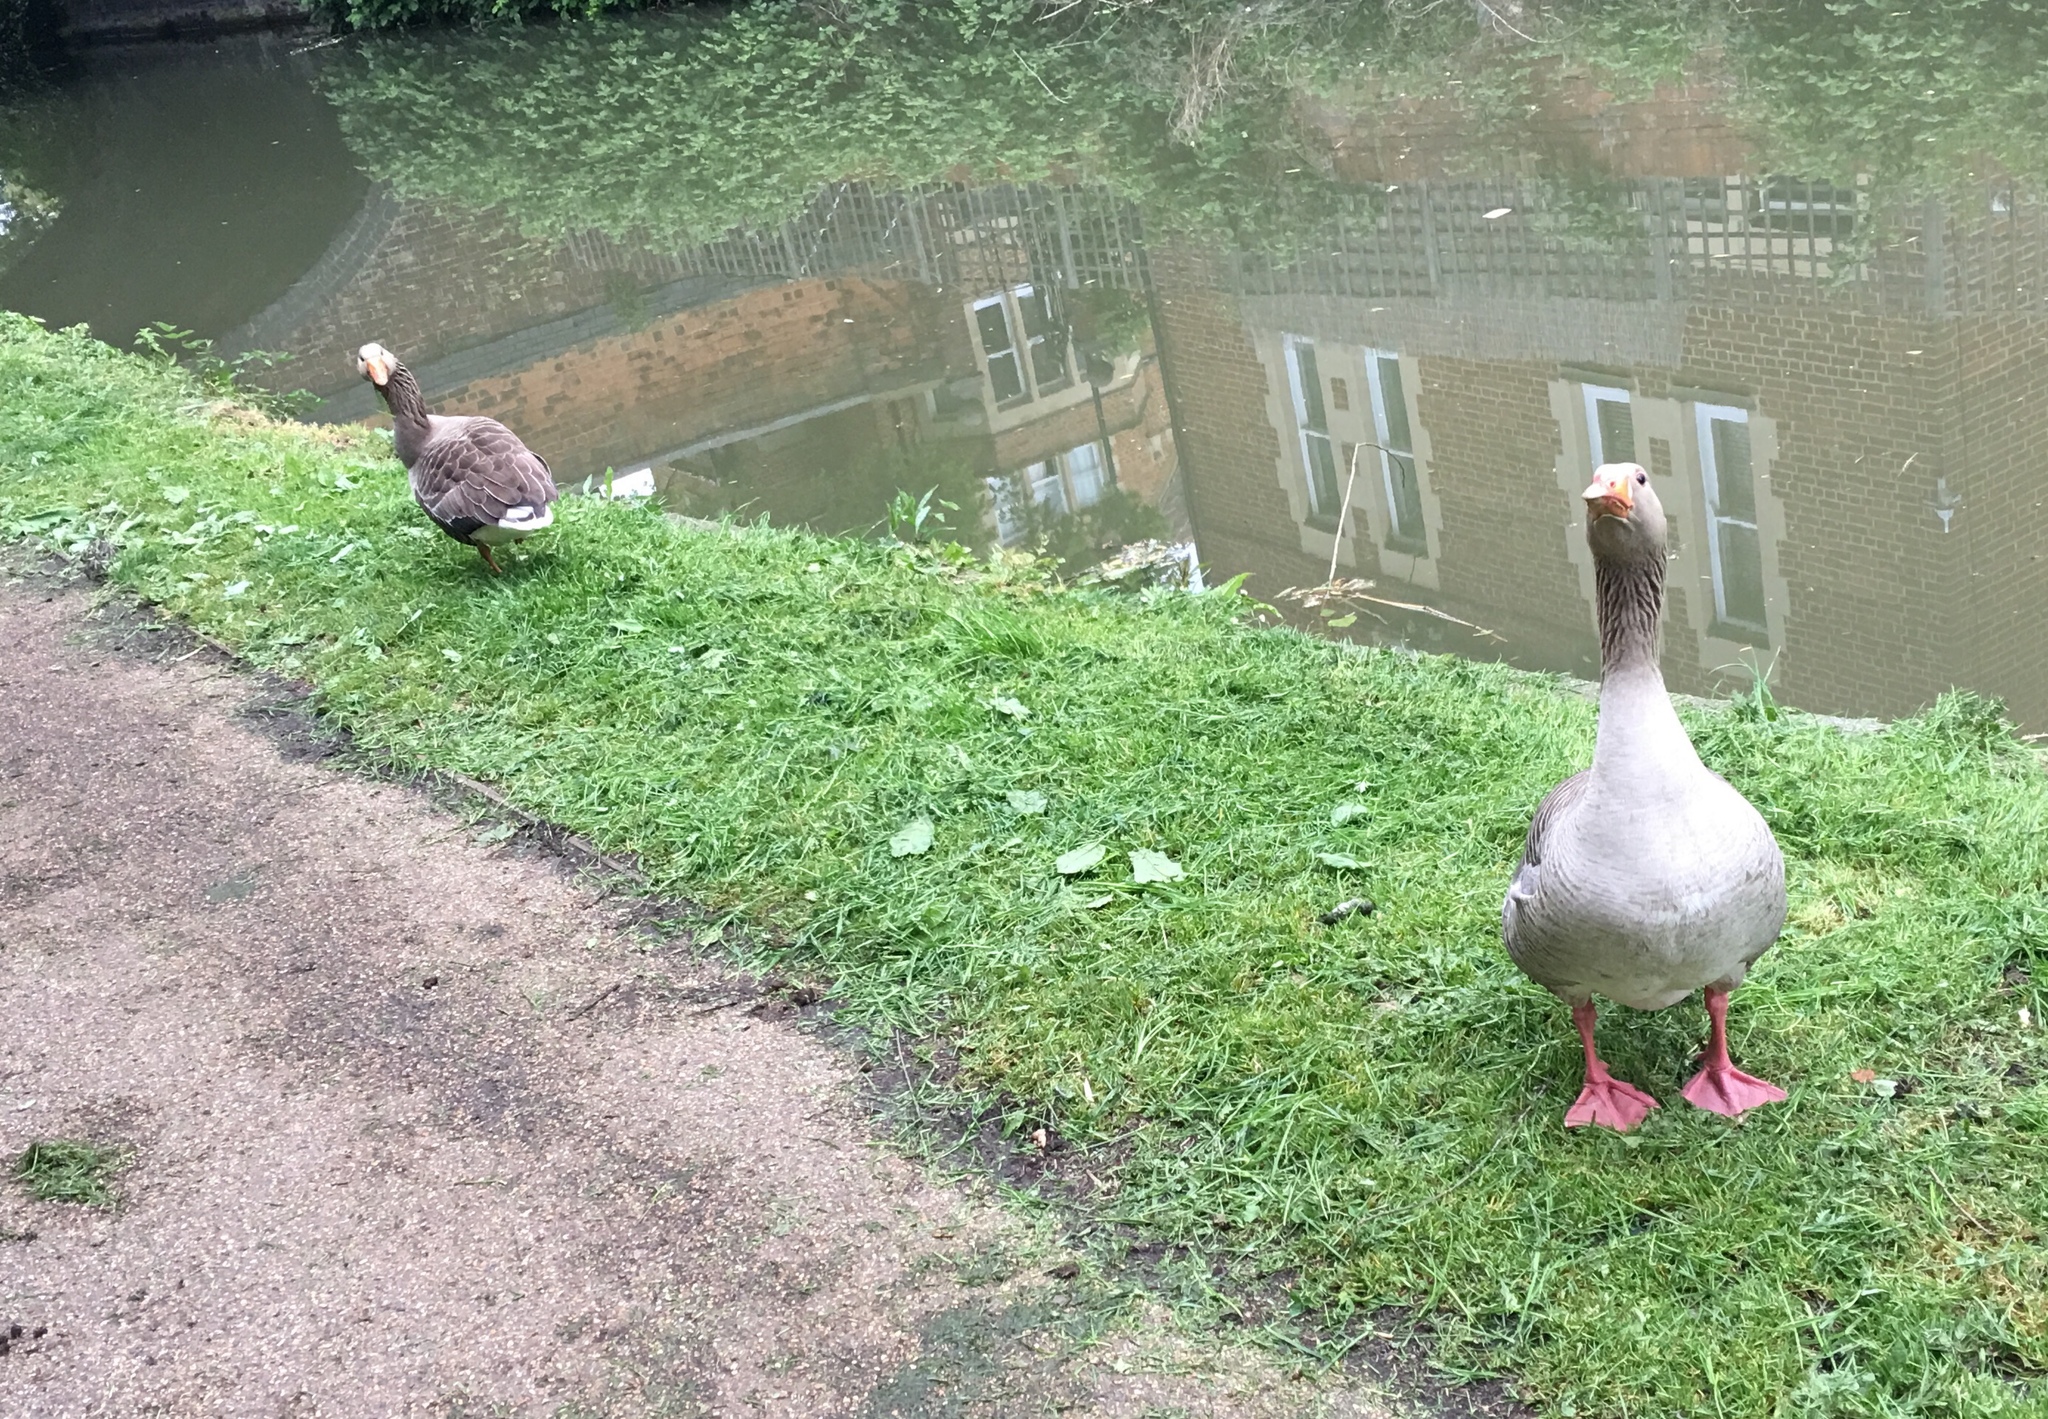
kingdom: Animalia
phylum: Chordata
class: Aves
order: Anseriformes
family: Anatidae
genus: Anser
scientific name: Anser anser
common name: Greylag goose
